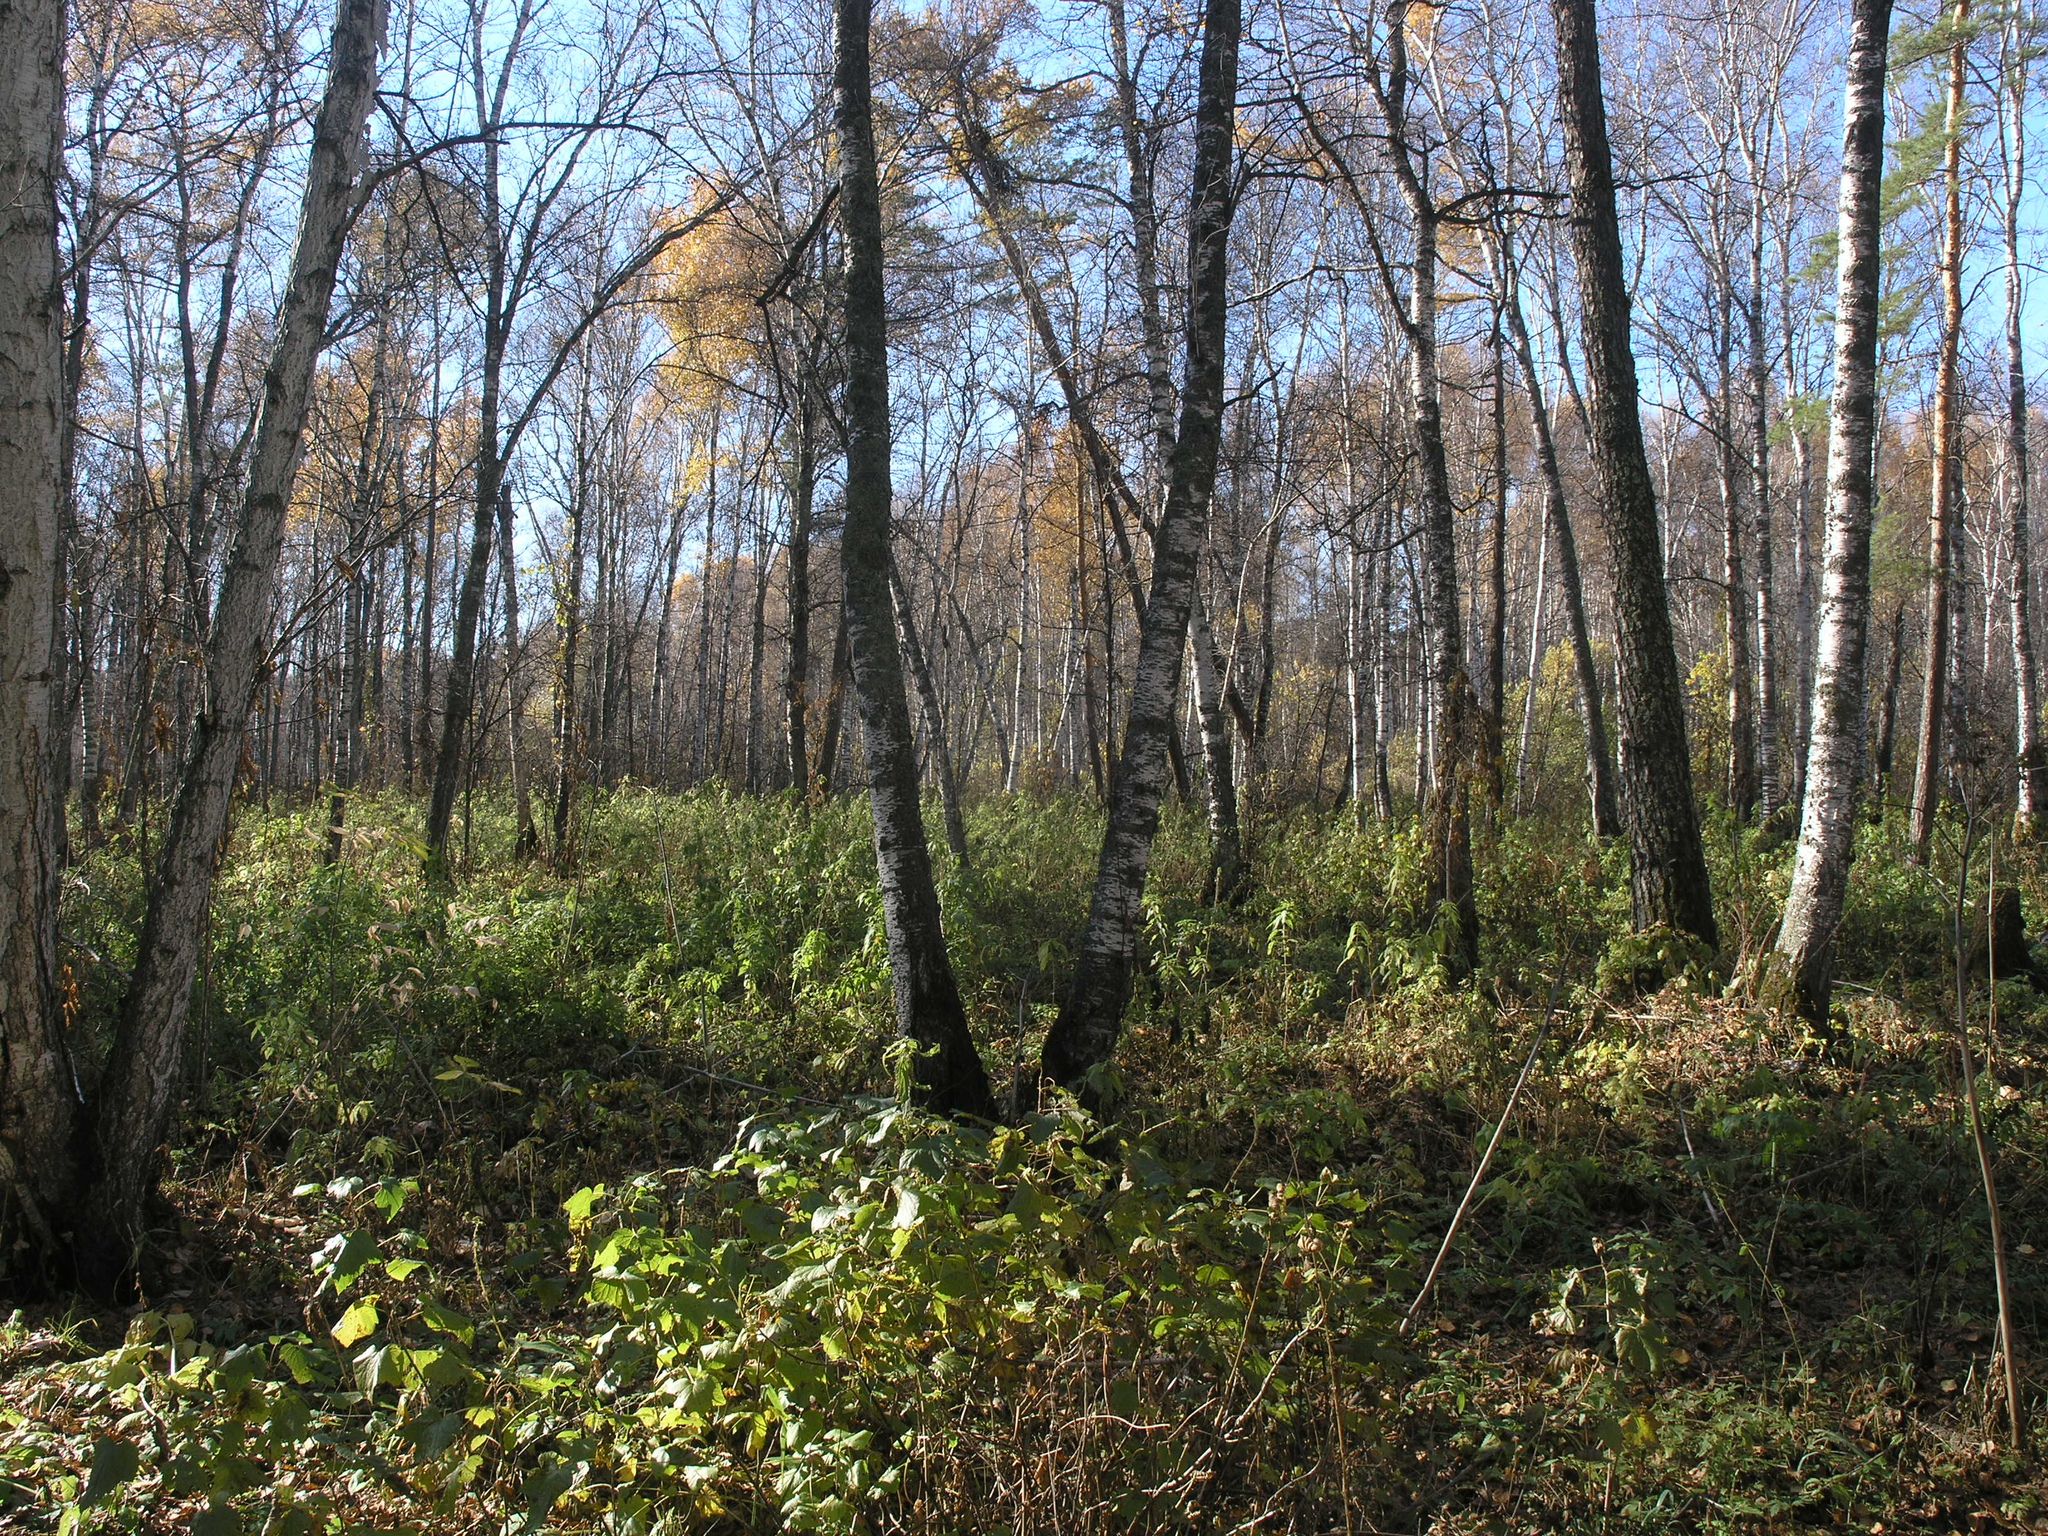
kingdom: Plantae
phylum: Tracheophyta
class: Magnoliopsida
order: Fagales
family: Betulaceae
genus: Betula
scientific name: Betula pubescens
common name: Downy birch
